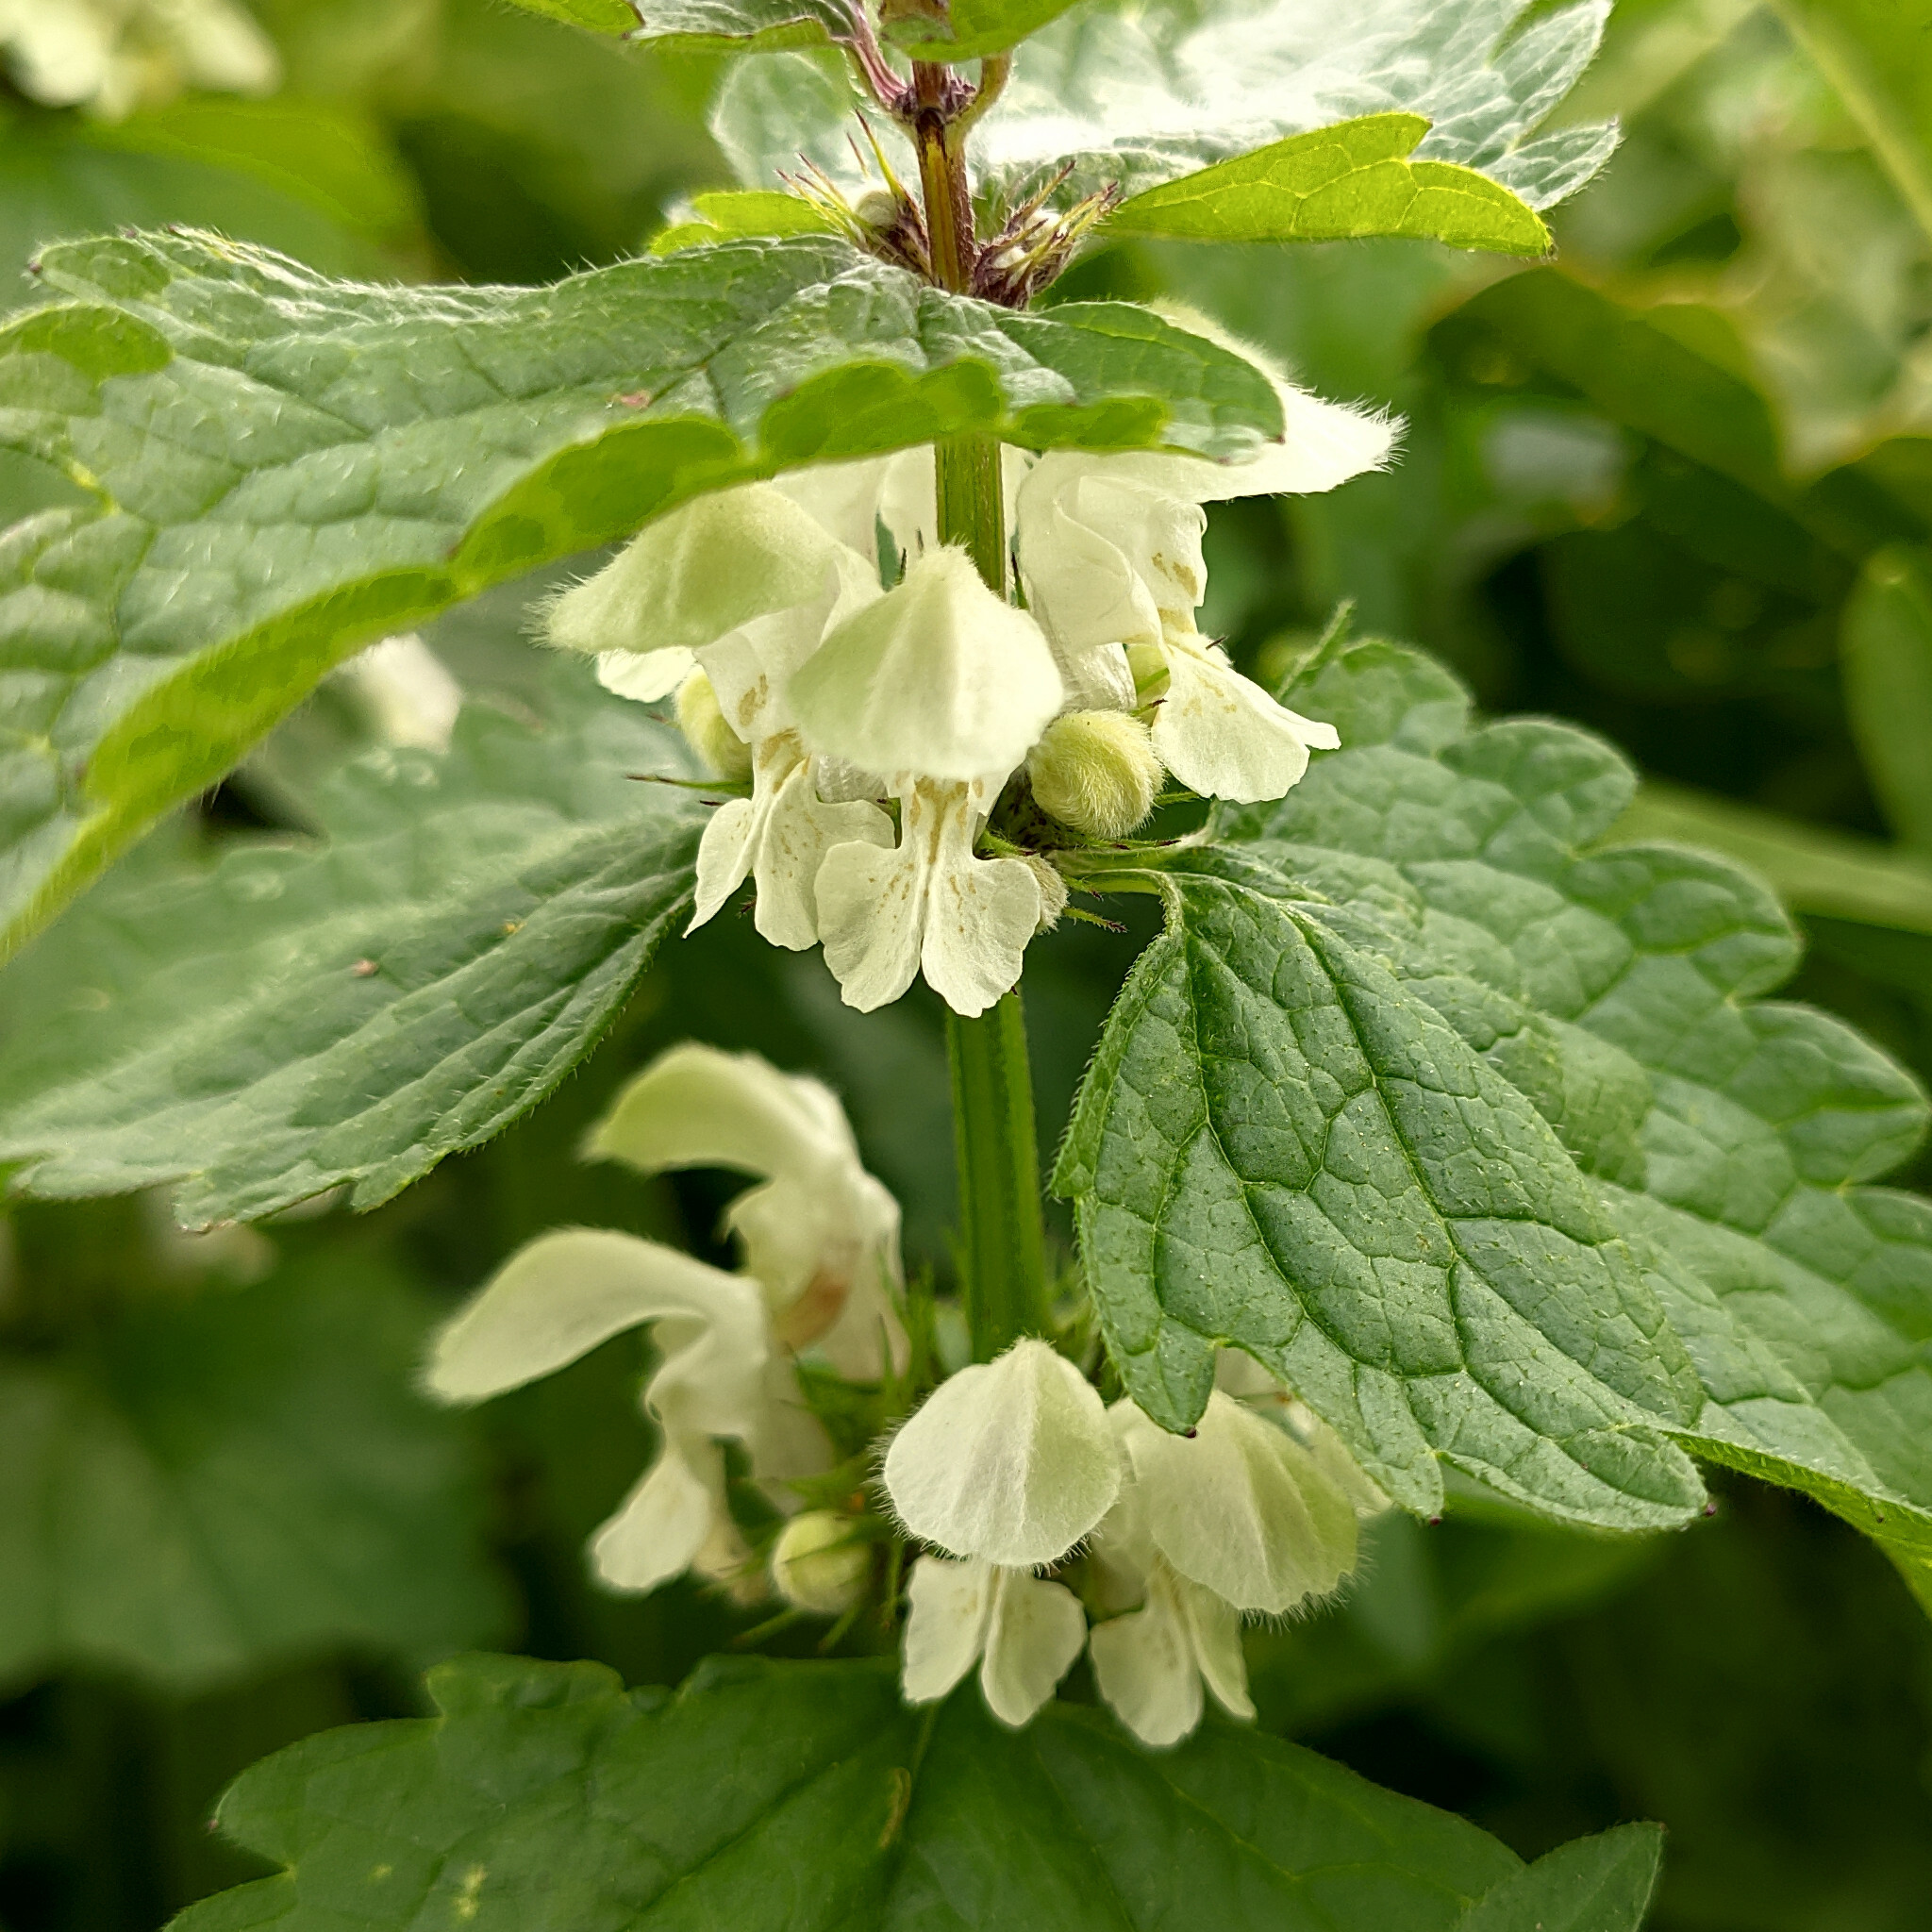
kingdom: Plantae
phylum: Tracheophyta
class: Magnoliopsida
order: Lamiales
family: Lamiaceae
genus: Lamium
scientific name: Lamium album
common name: White dead-nettle
